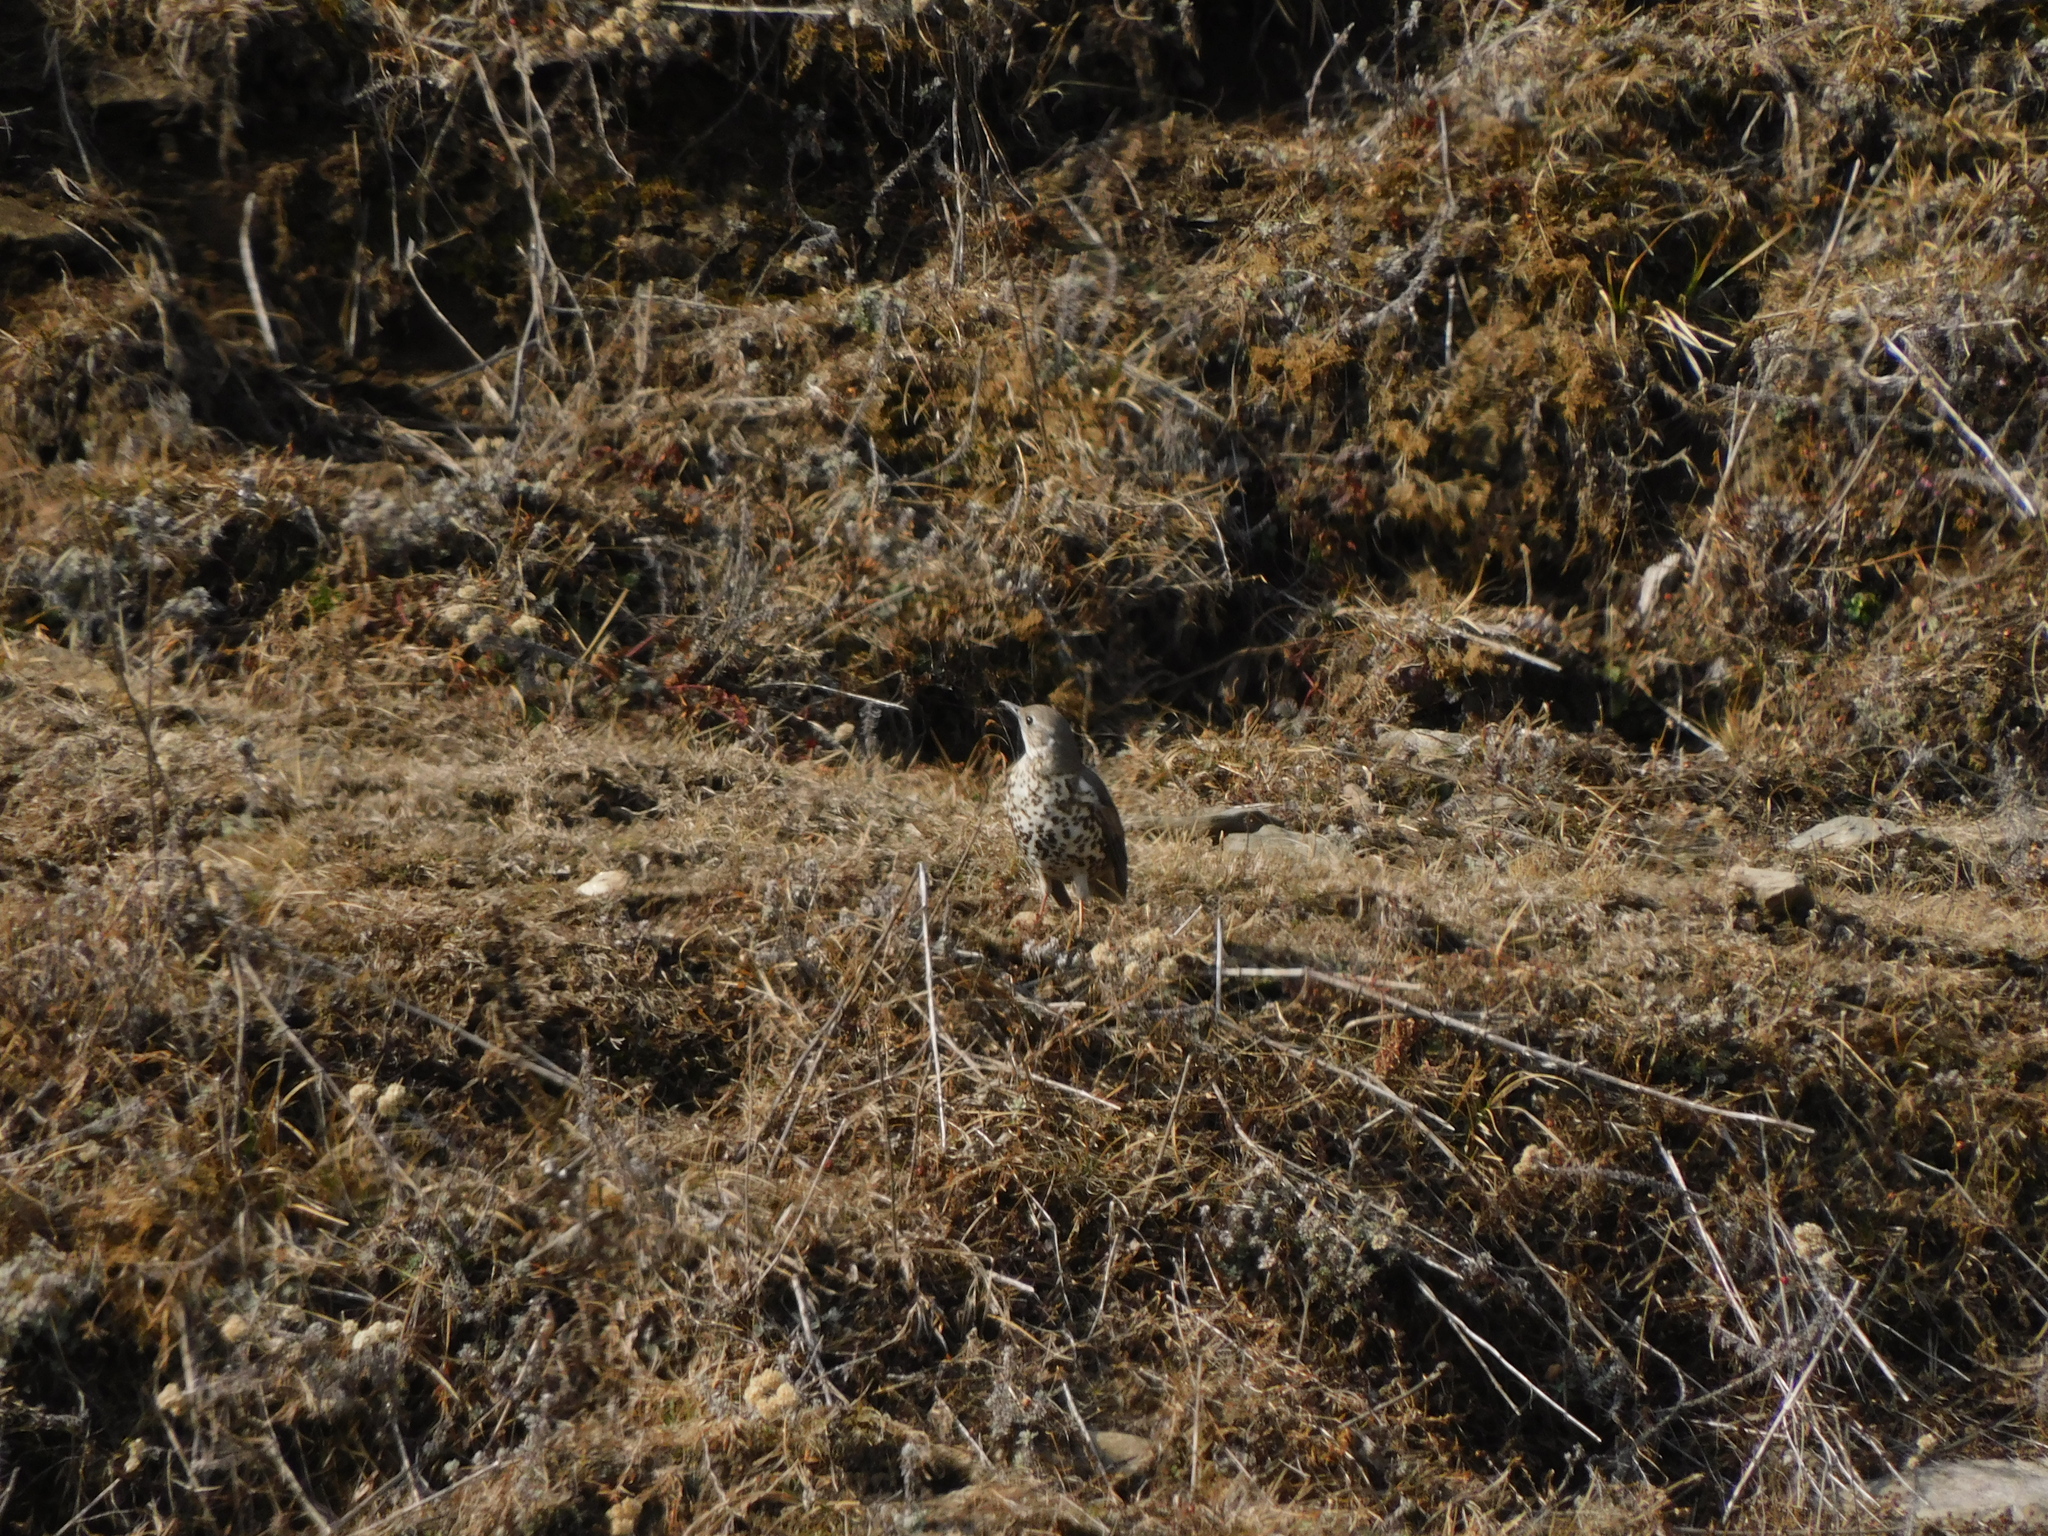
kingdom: Animalia
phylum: Chordata
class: Aves
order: Passeriformes
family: Turdidae
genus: Turdus
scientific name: Turdus viscivorus
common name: Mistle thrush
